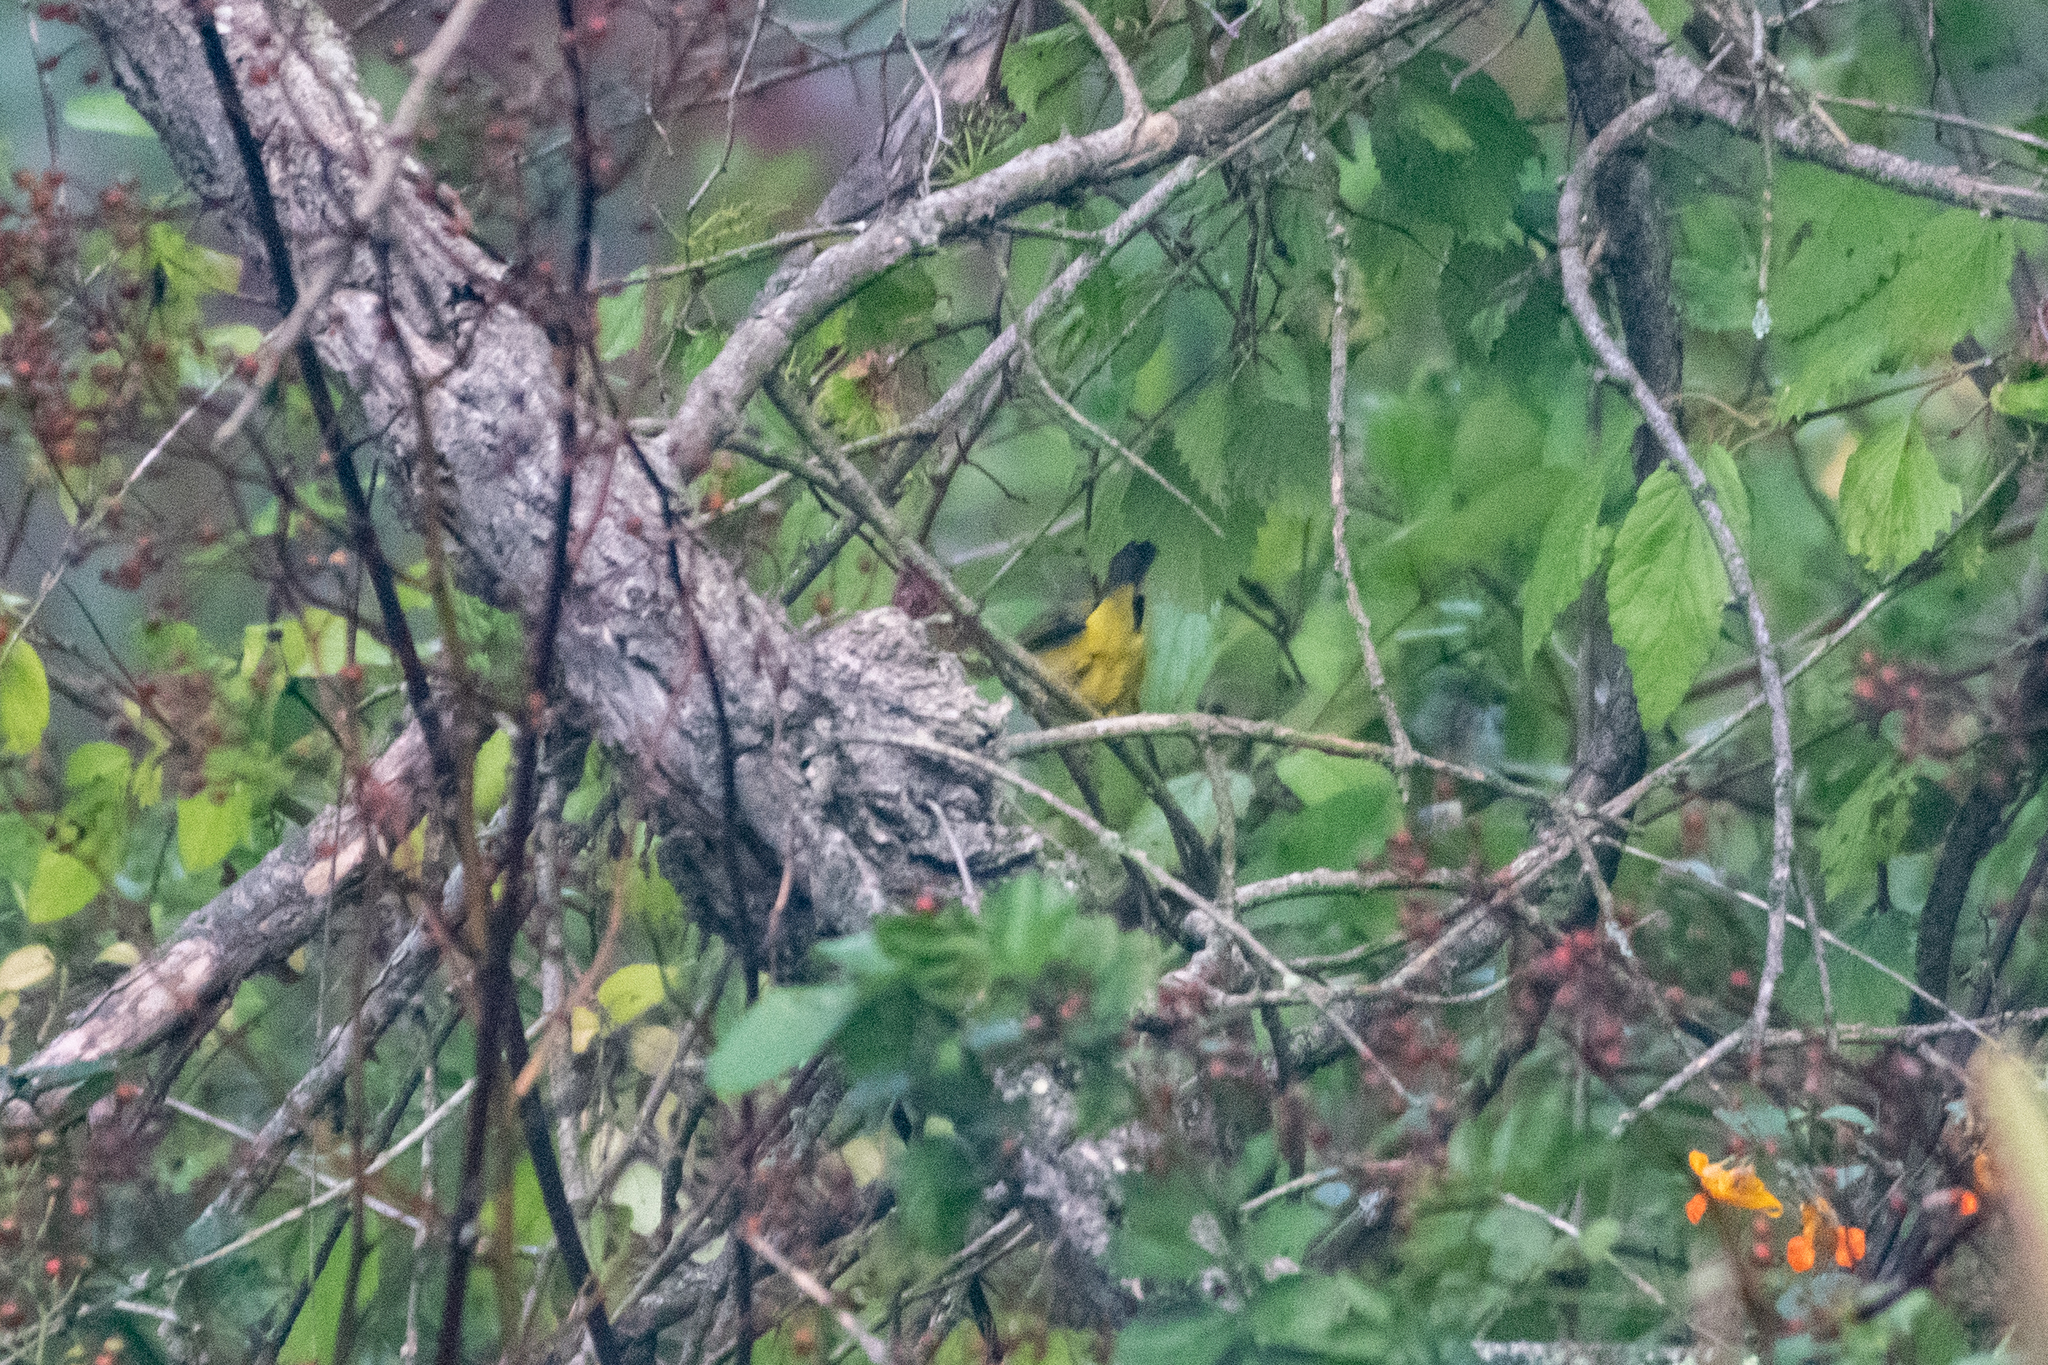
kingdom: Animalia
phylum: Chordata
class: Aves
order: Passeriformes
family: Parulidae
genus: Cardellina
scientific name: Cardellina pusilla
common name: Wilson's warbler
